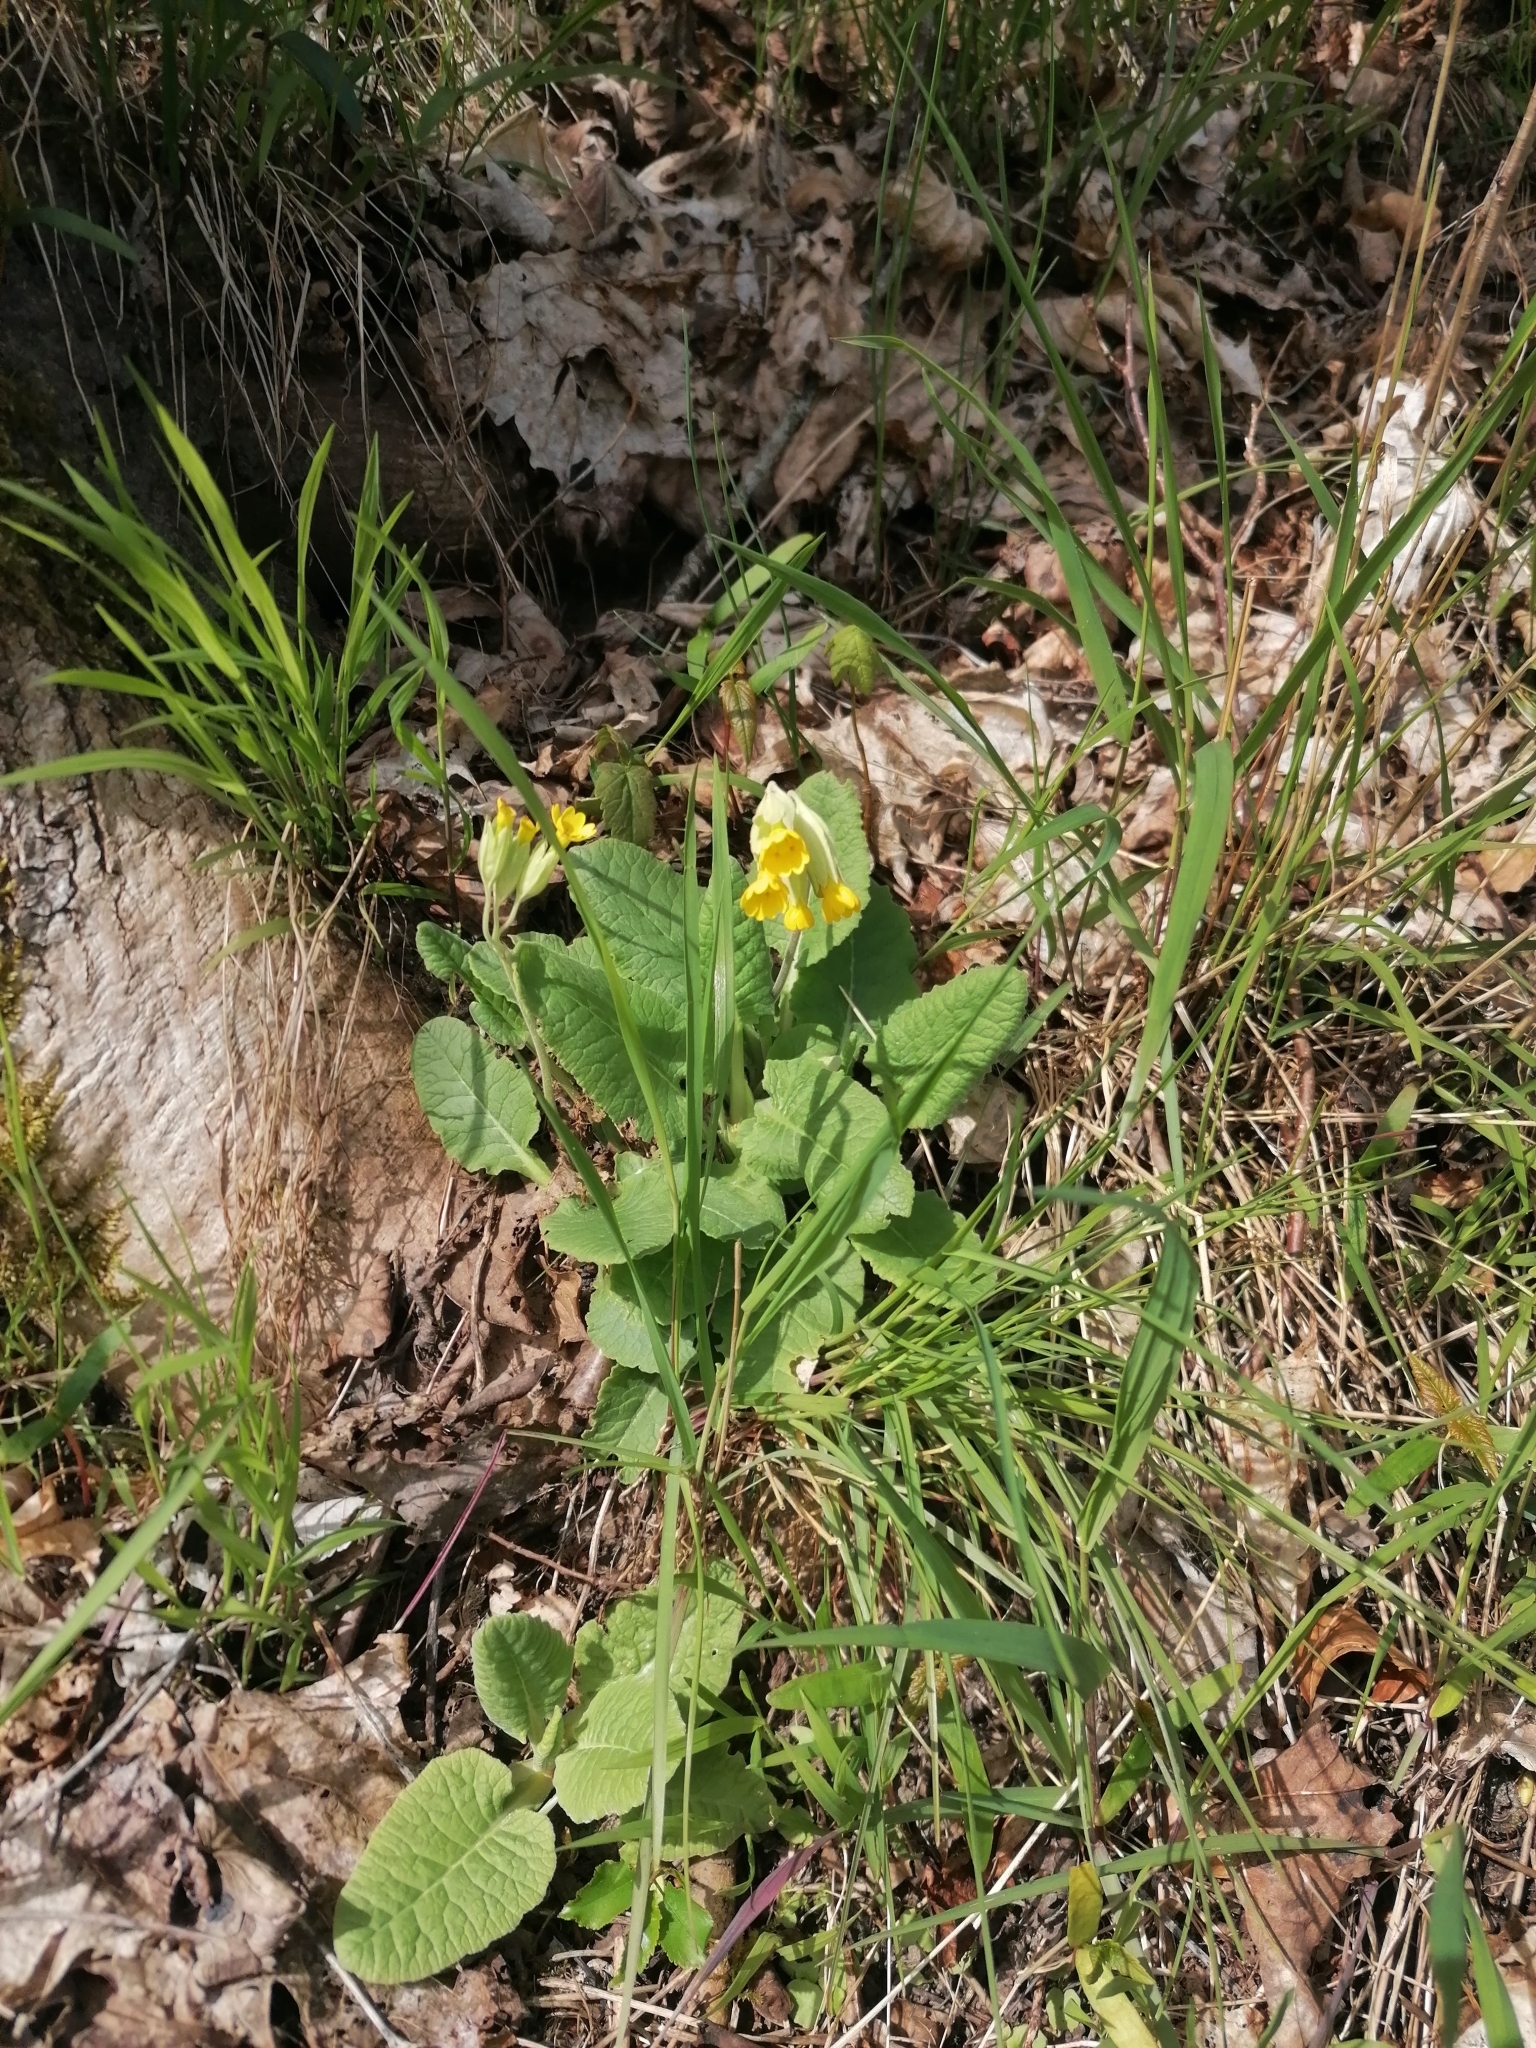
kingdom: Plantae
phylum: Tracheophyta
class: Magnoliopsida
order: Ericales
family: Primulaceae
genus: Primula
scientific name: Primula veris
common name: Cowslip
